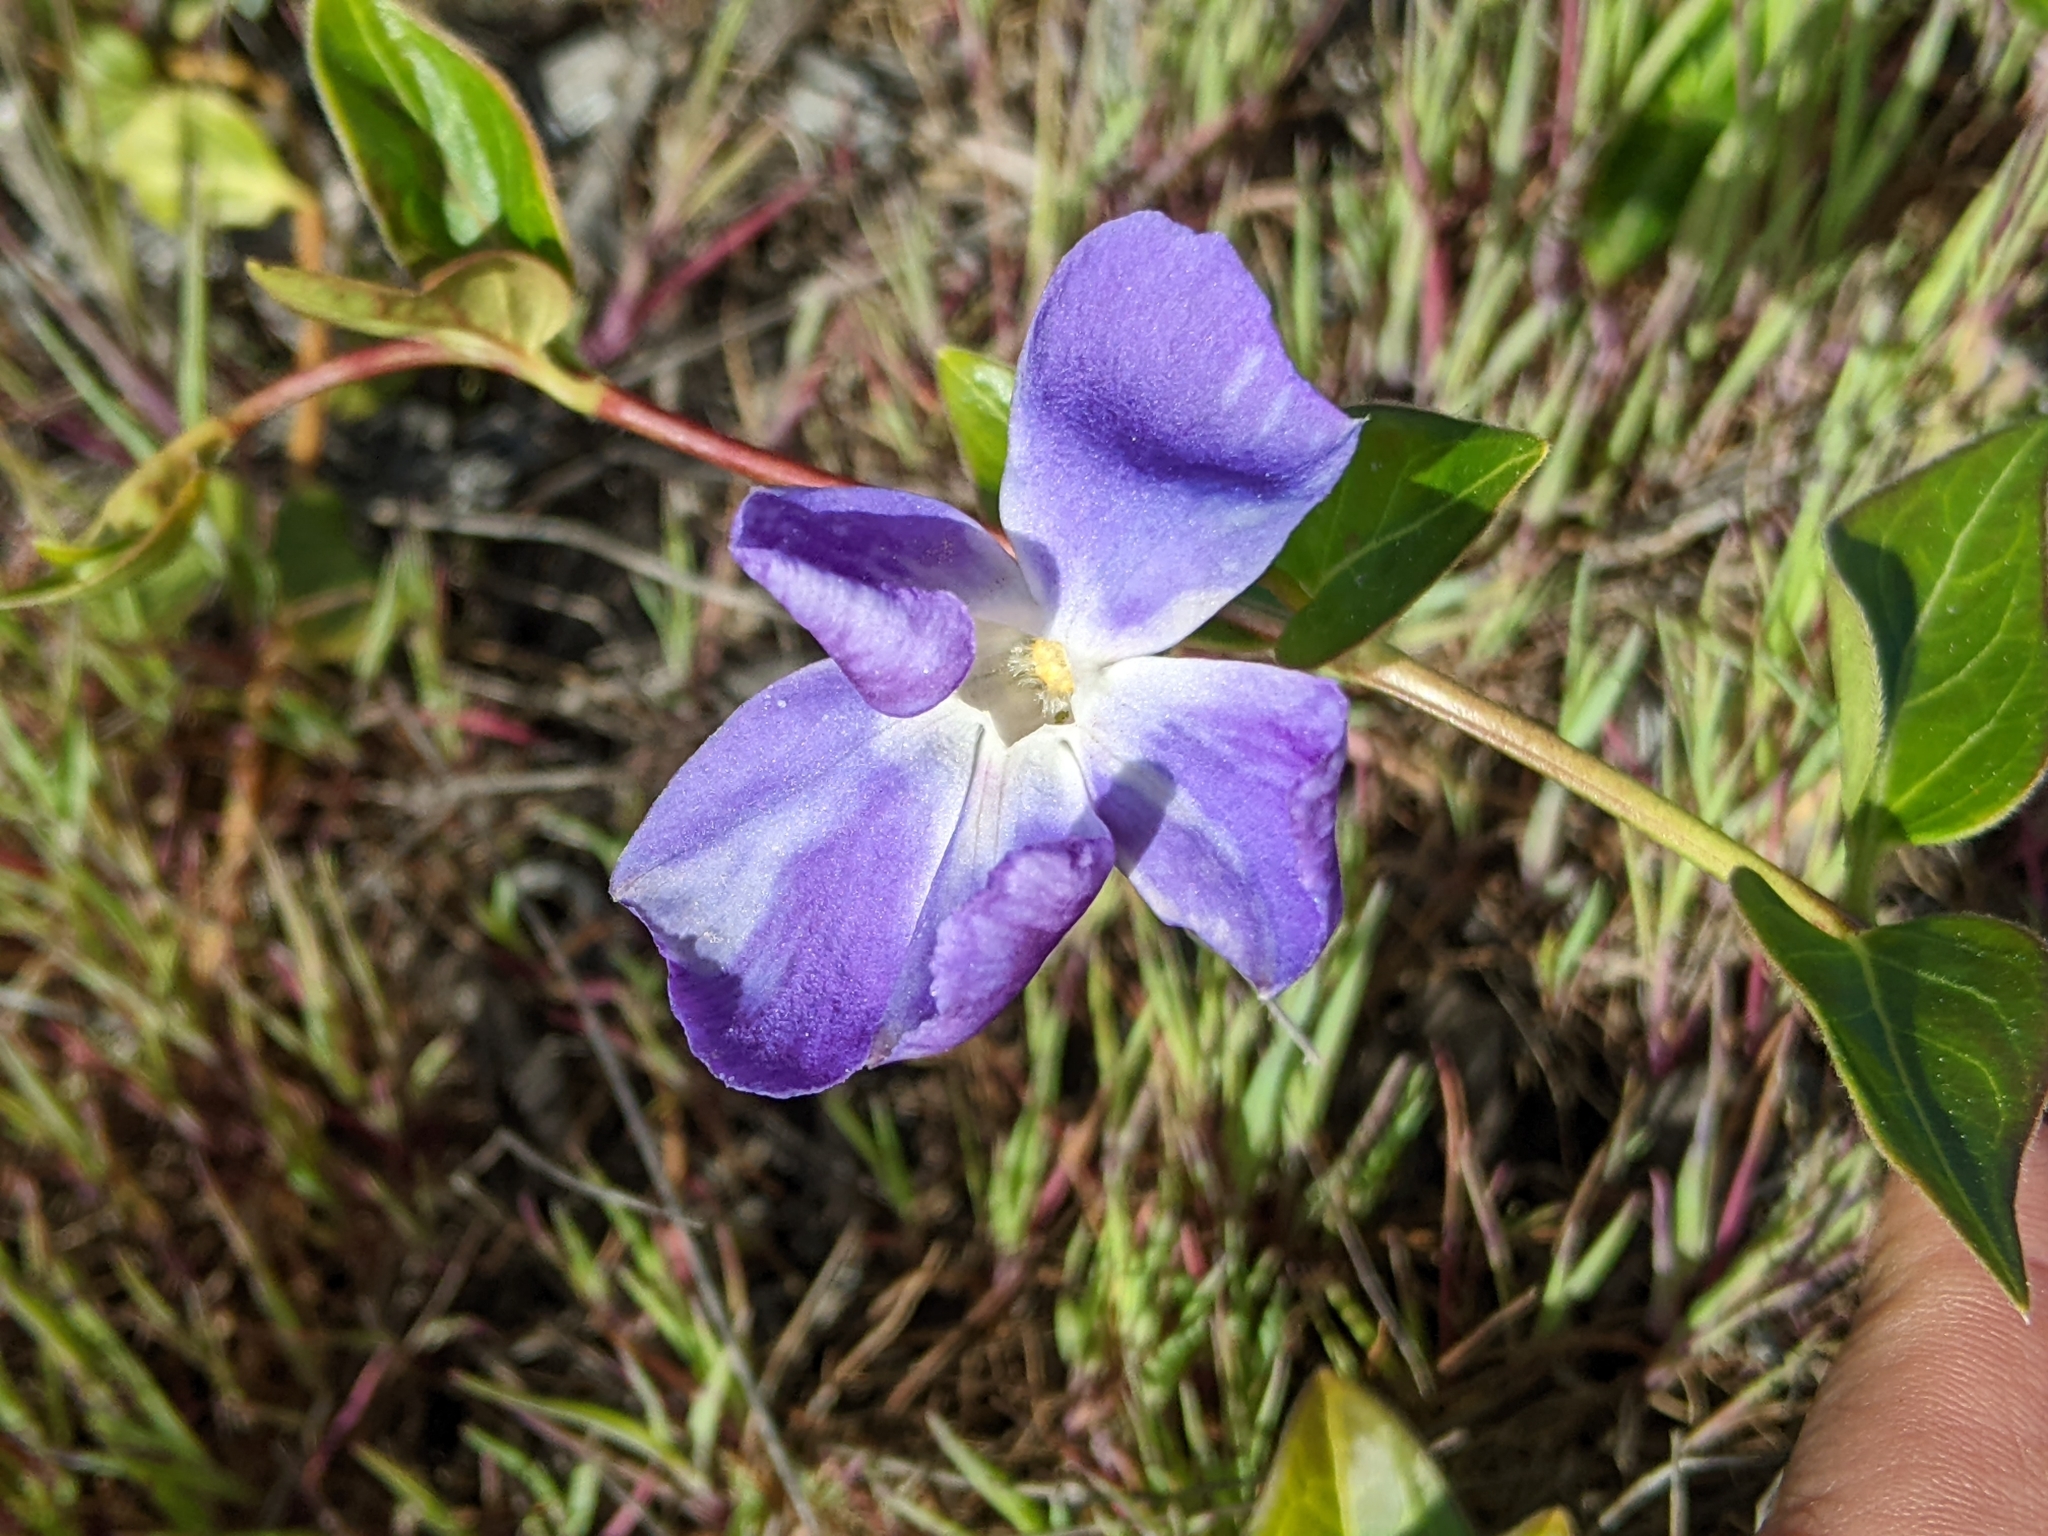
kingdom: Plantae
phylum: Tracheophyta
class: Magnoliopsida
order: Gentianales
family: Apocynaceae
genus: Vinca
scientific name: Vinca major
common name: Greater periwinkle
